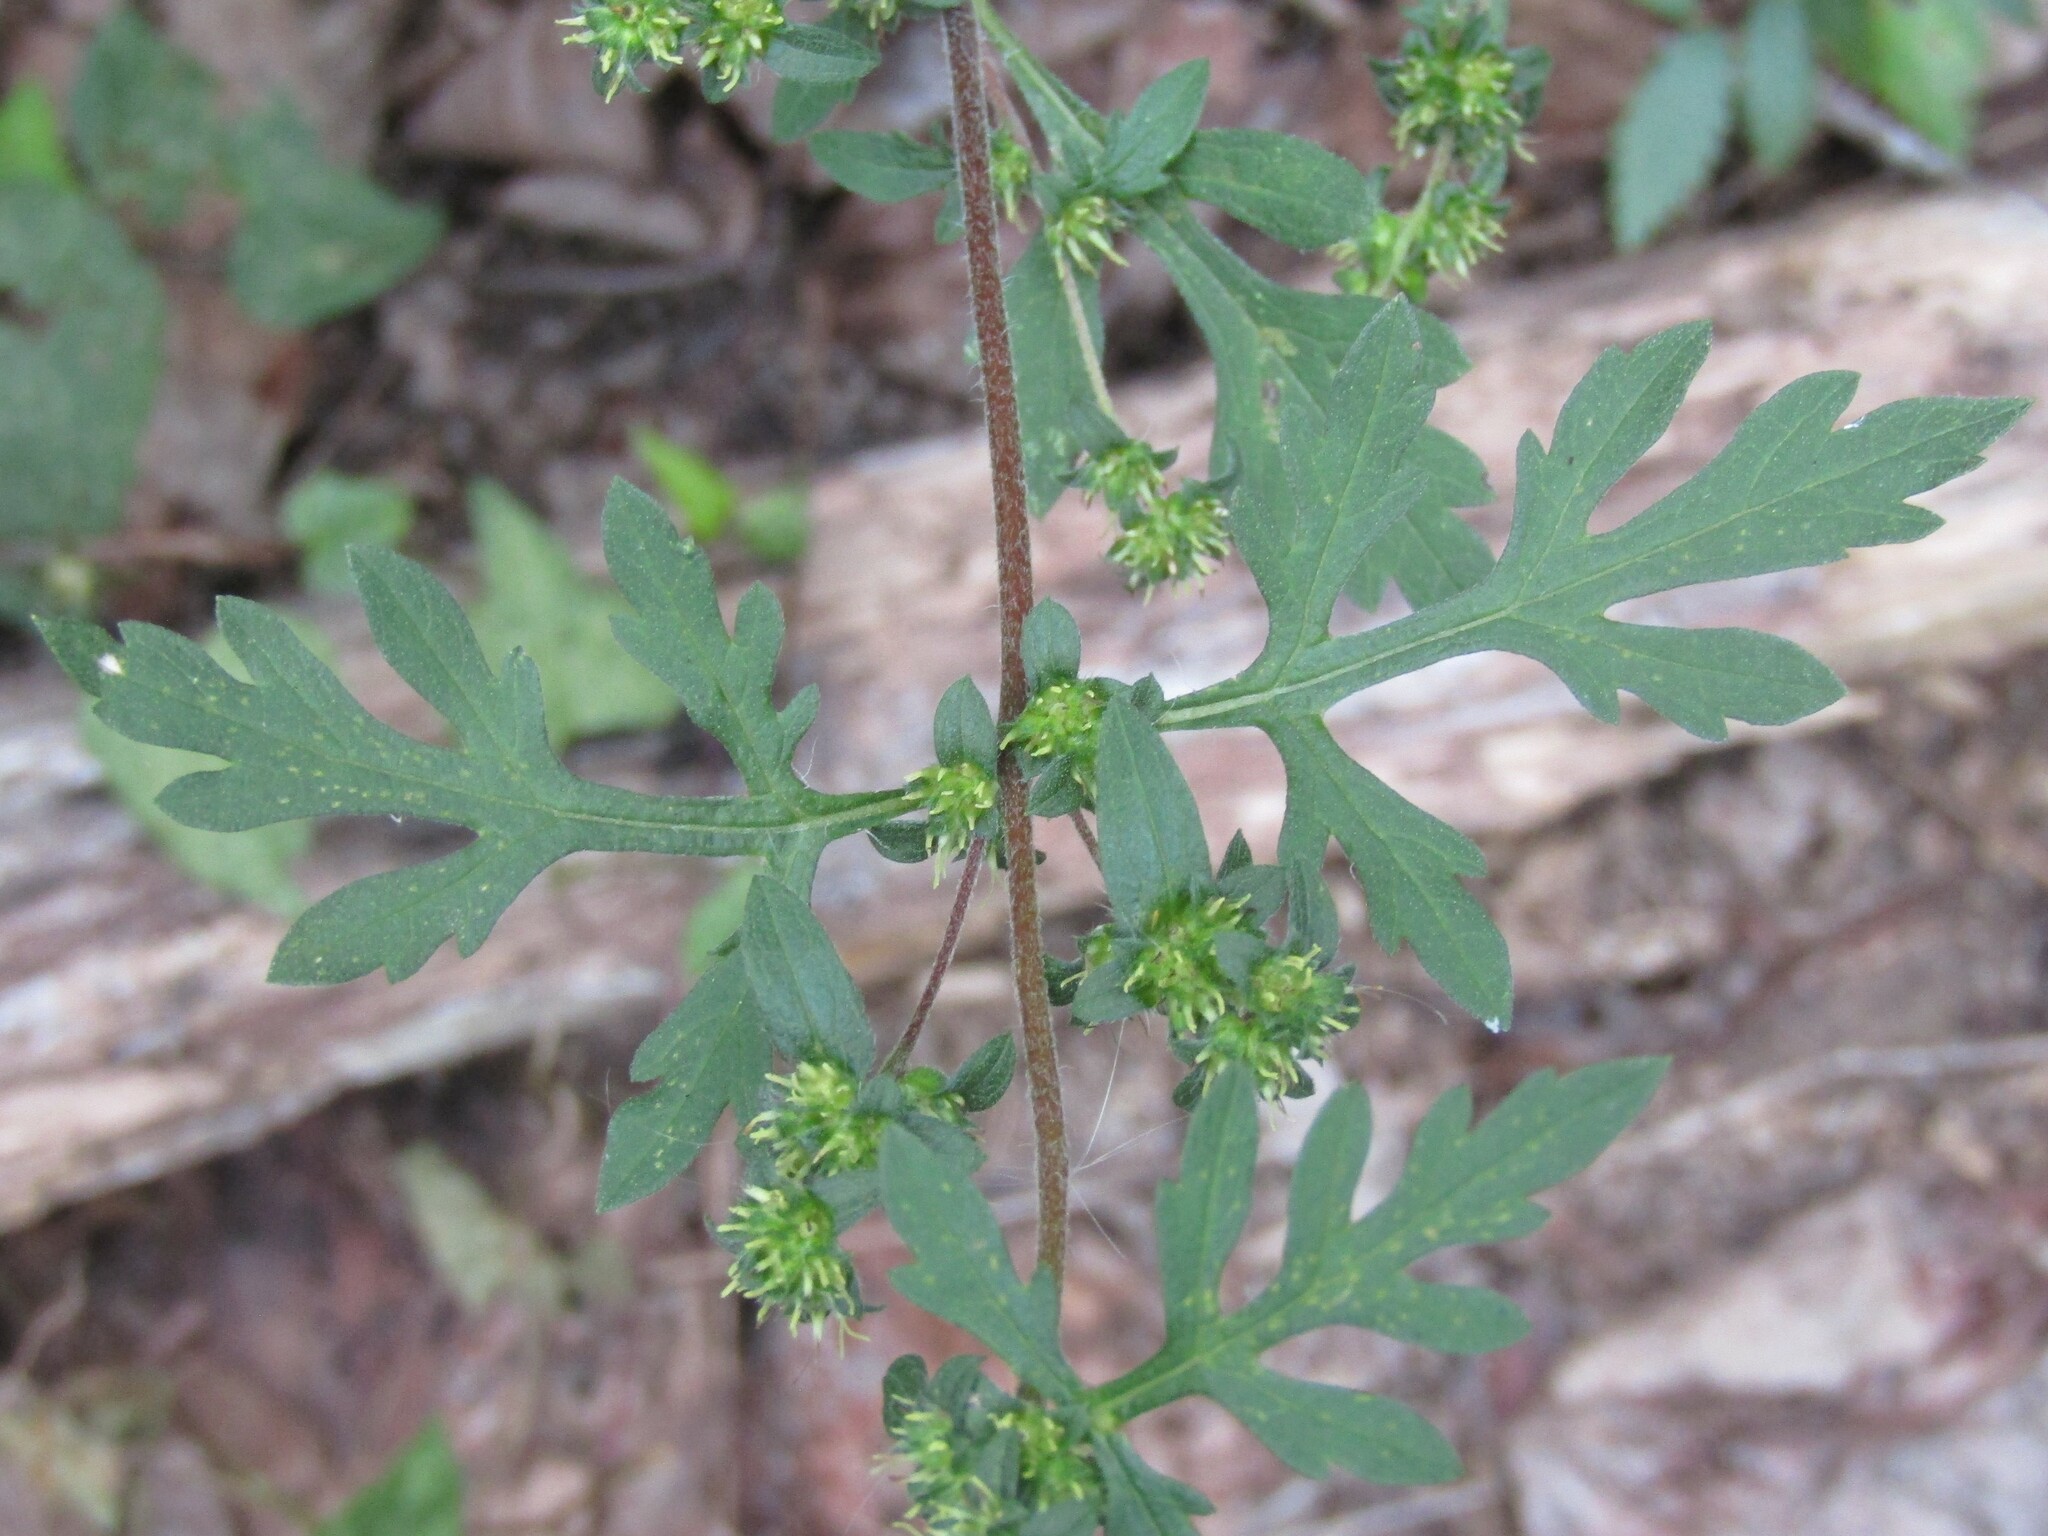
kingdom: Plantae
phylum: Tracheophyta
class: Magnoliopsida
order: Asterales
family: Asteraceae
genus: Ambrosia
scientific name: Ambrosia artemisiifolia
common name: Annual ragweed
